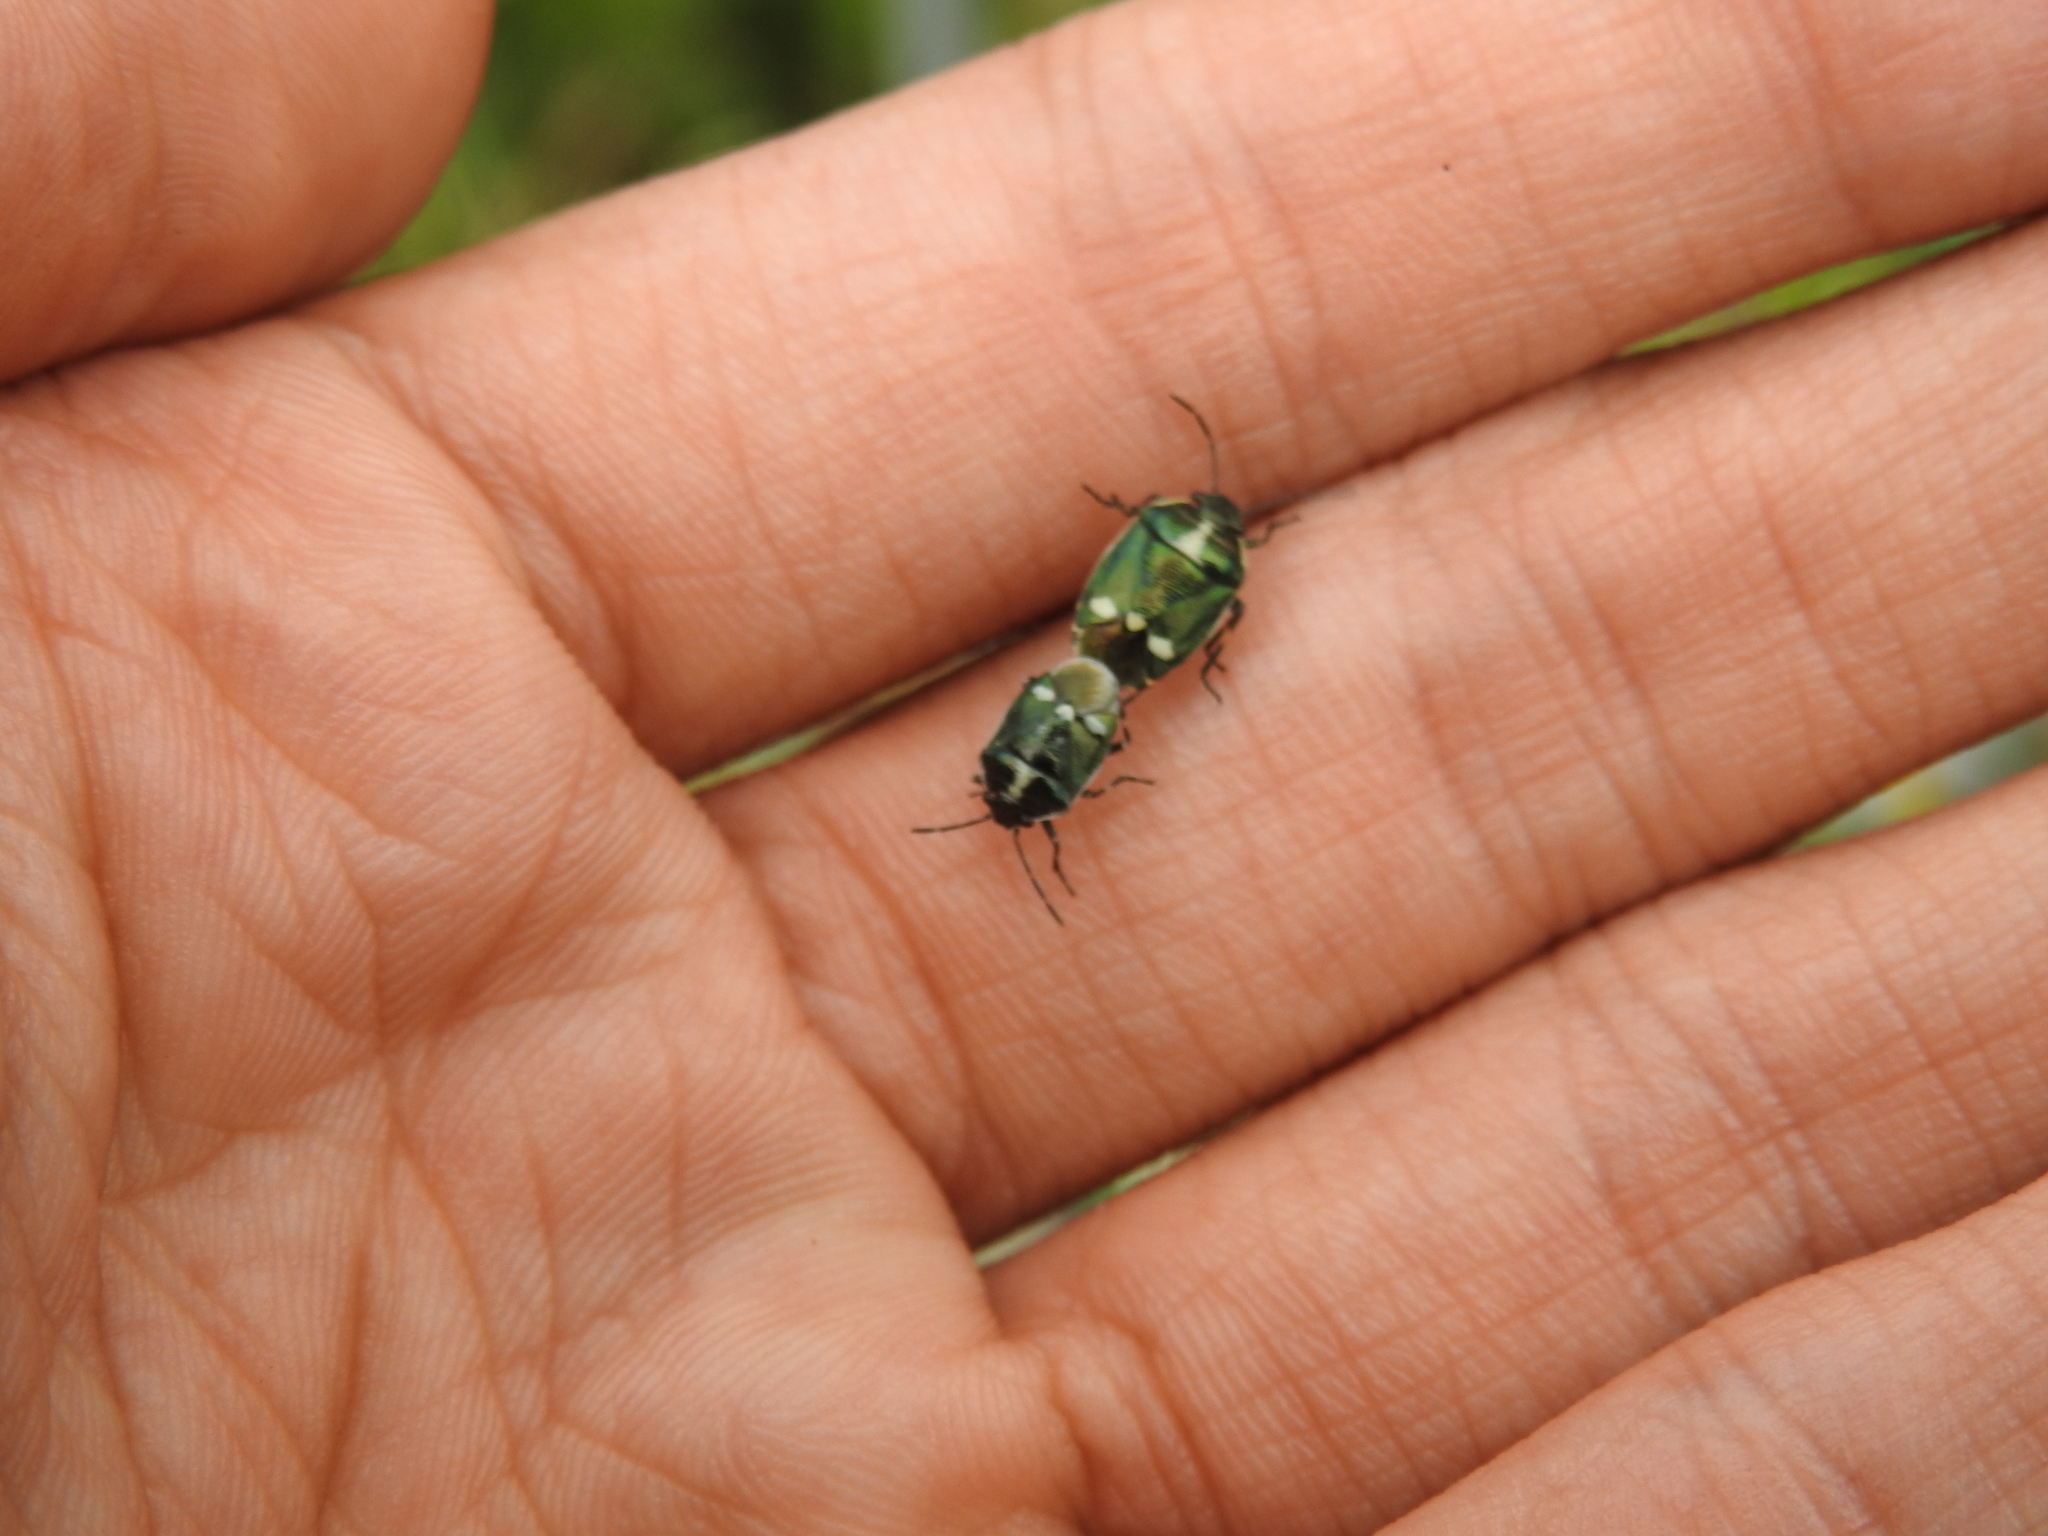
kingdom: Animalia
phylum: Arthropoda
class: Insecta
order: Hemiptera
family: Pentatomidae
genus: Eurydema
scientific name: Eurydema oleracea
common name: Cabbage bug
